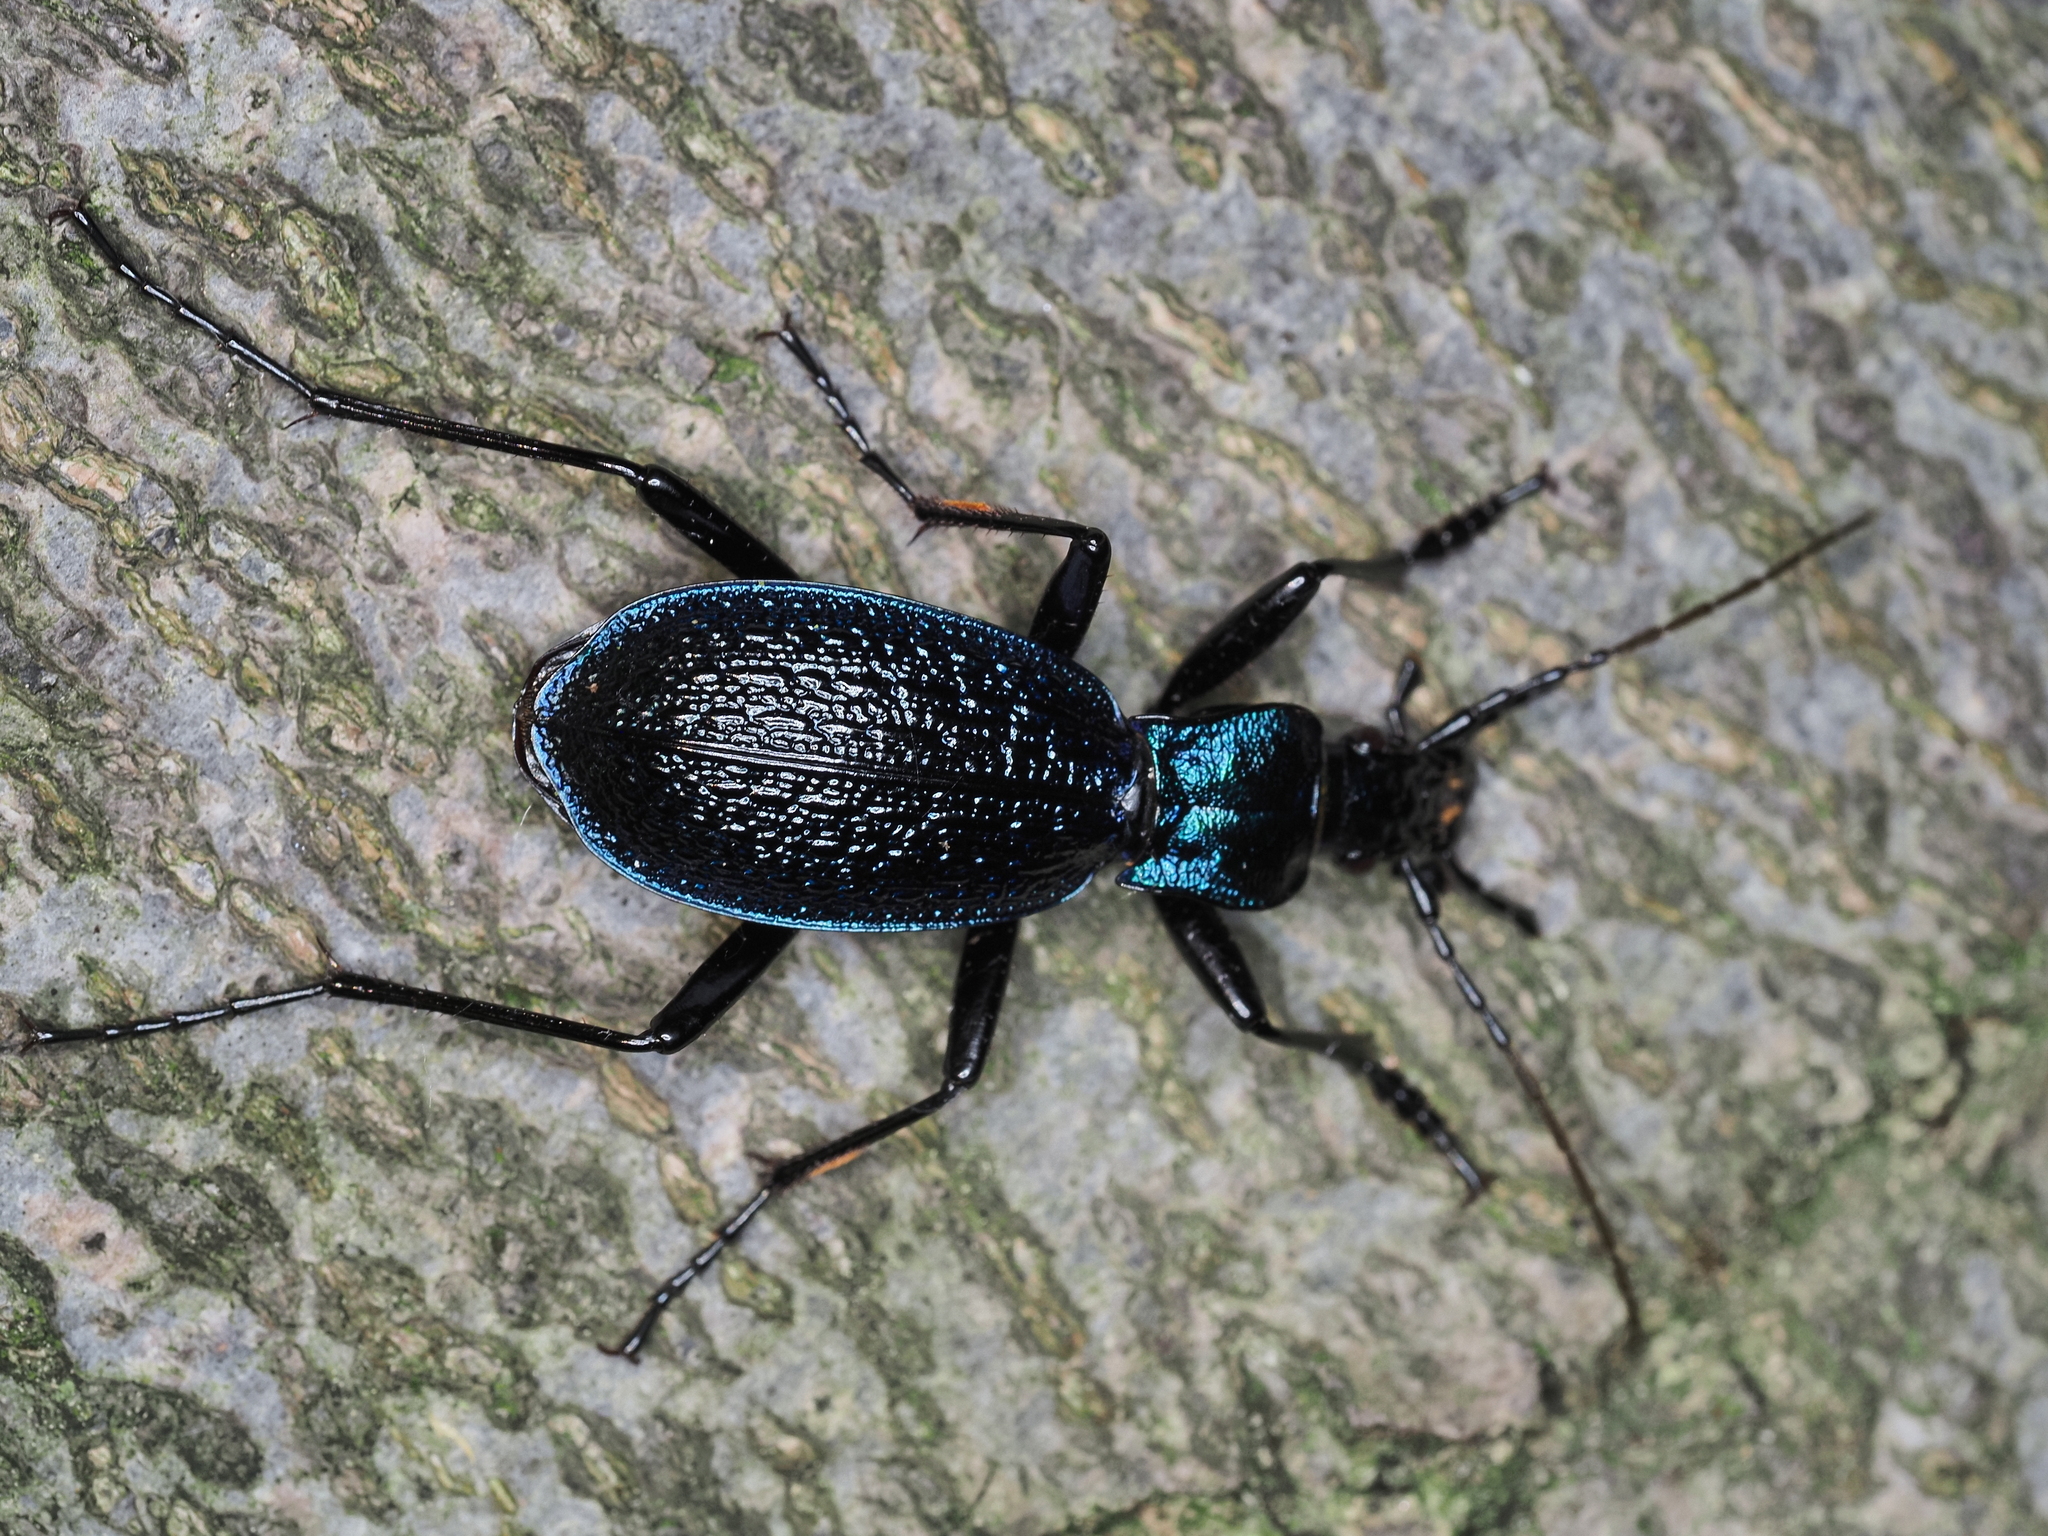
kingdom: Animalia
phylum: Arthropoda
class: Insecta
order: Coleoptera
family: Carabidae
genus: Carabus
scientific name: Carabus intricatus
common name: Blue ground beetle
